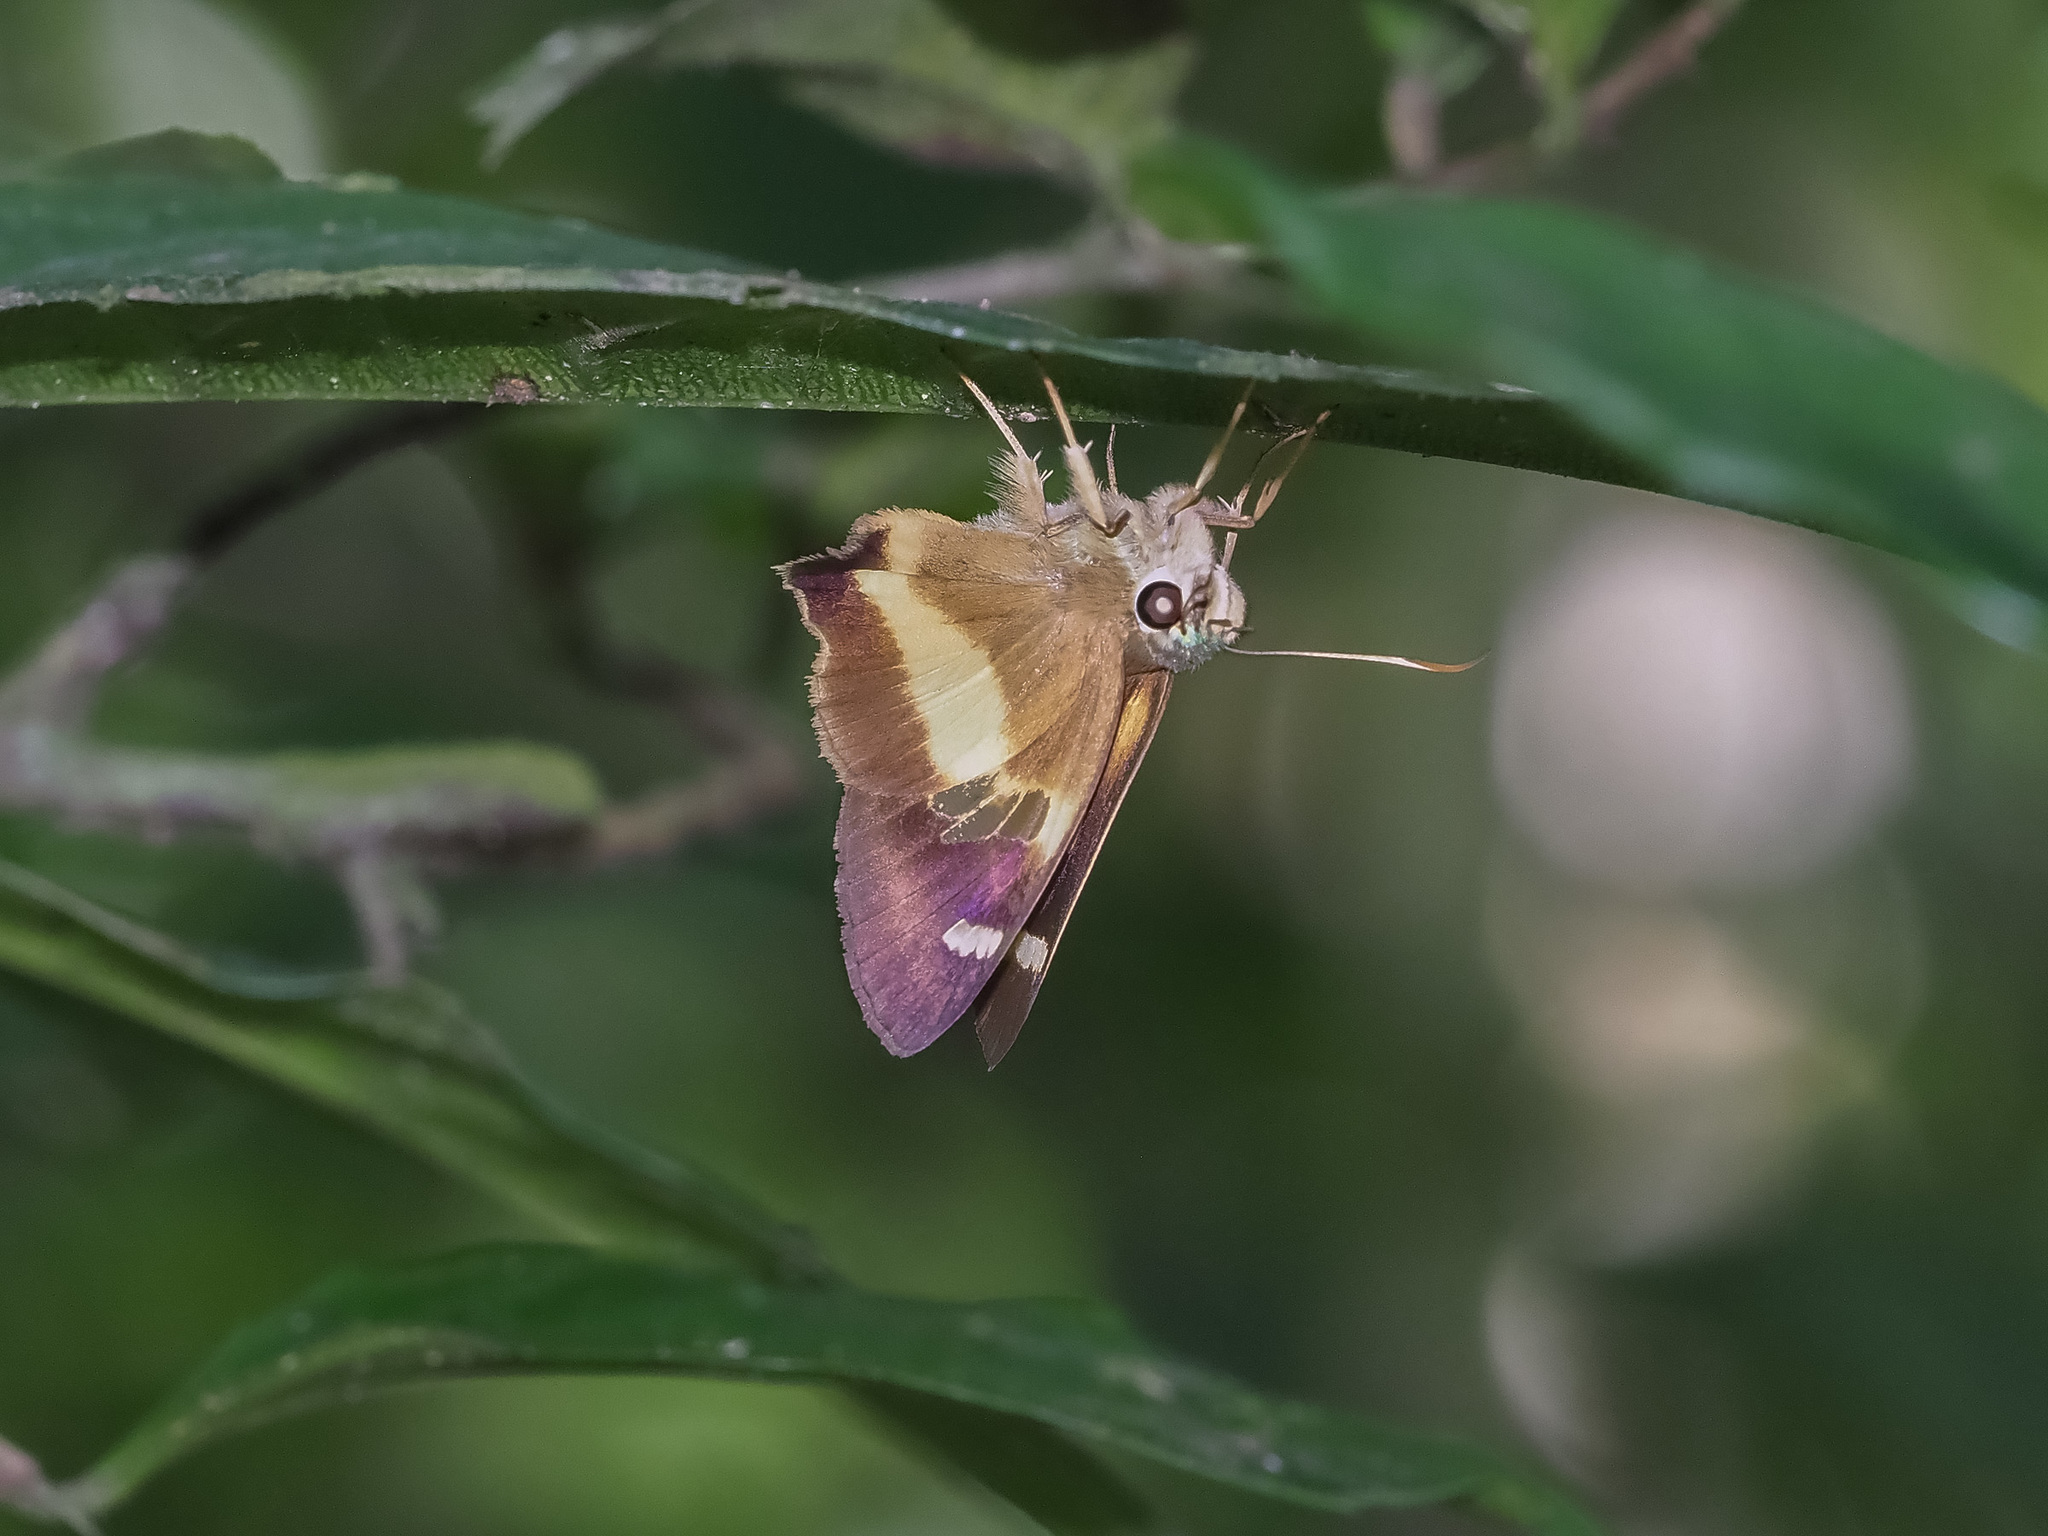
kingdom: Animalia
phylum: Arthropoda
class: Insecta
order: Lepidoptera
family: Hesperiidae
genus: Hasora
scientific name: Hasora schoenherr
